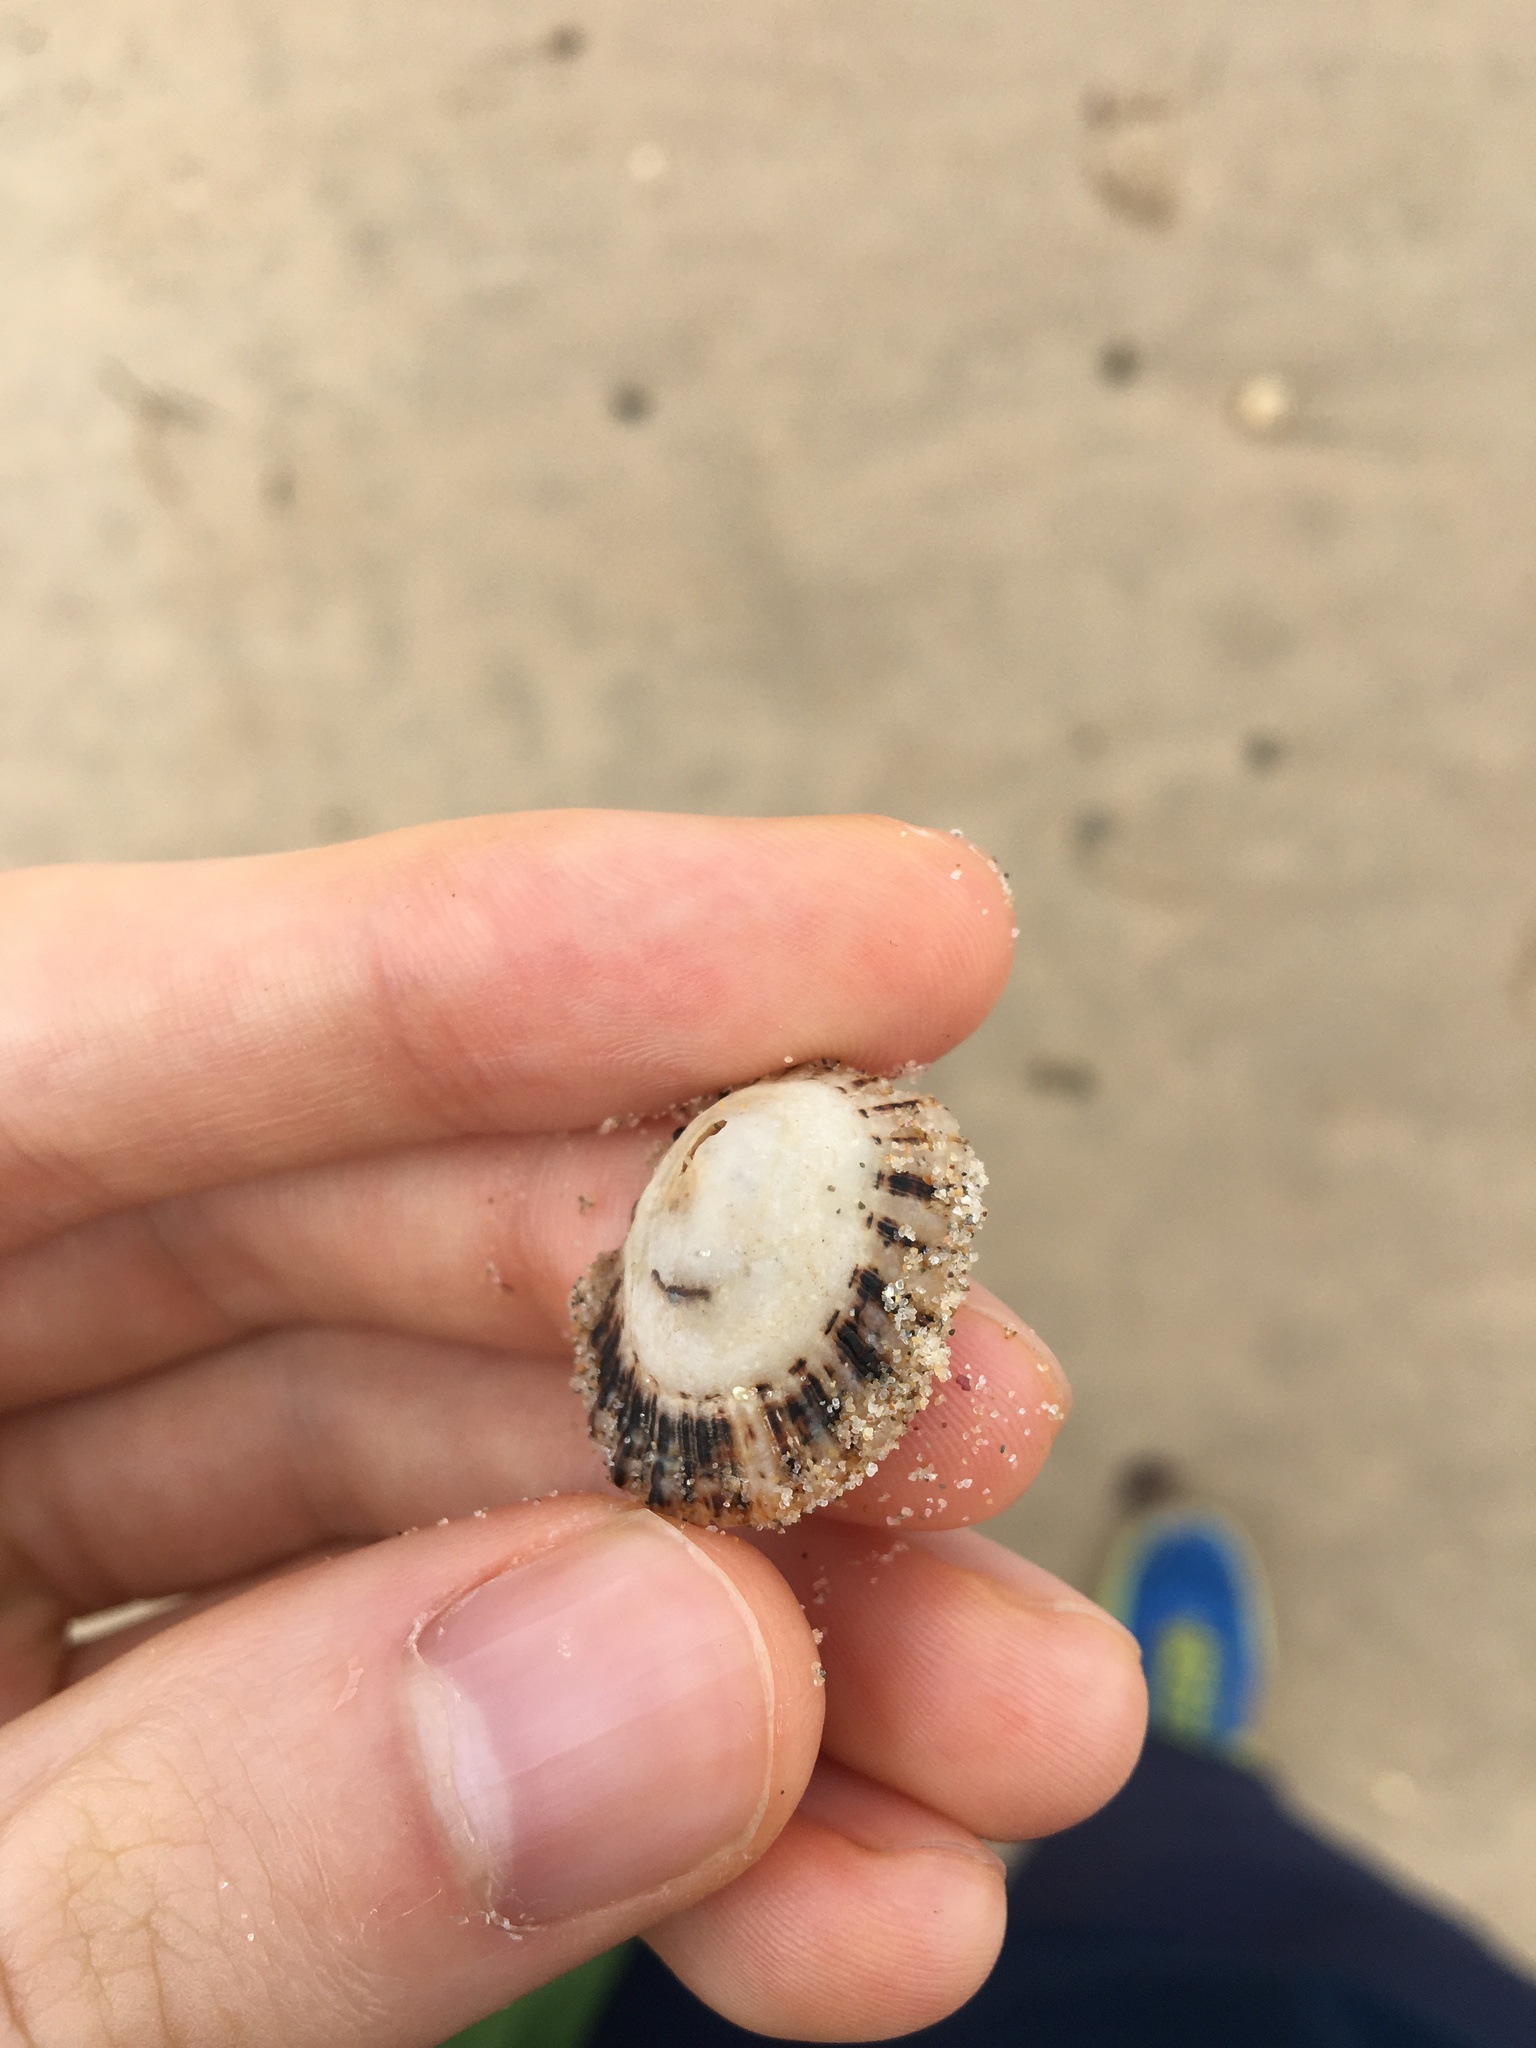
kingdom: Animalia
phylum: Mollusca
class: Gastropoda
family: Patellidae
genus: Scutellastra
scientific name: Scutellastra peronii
